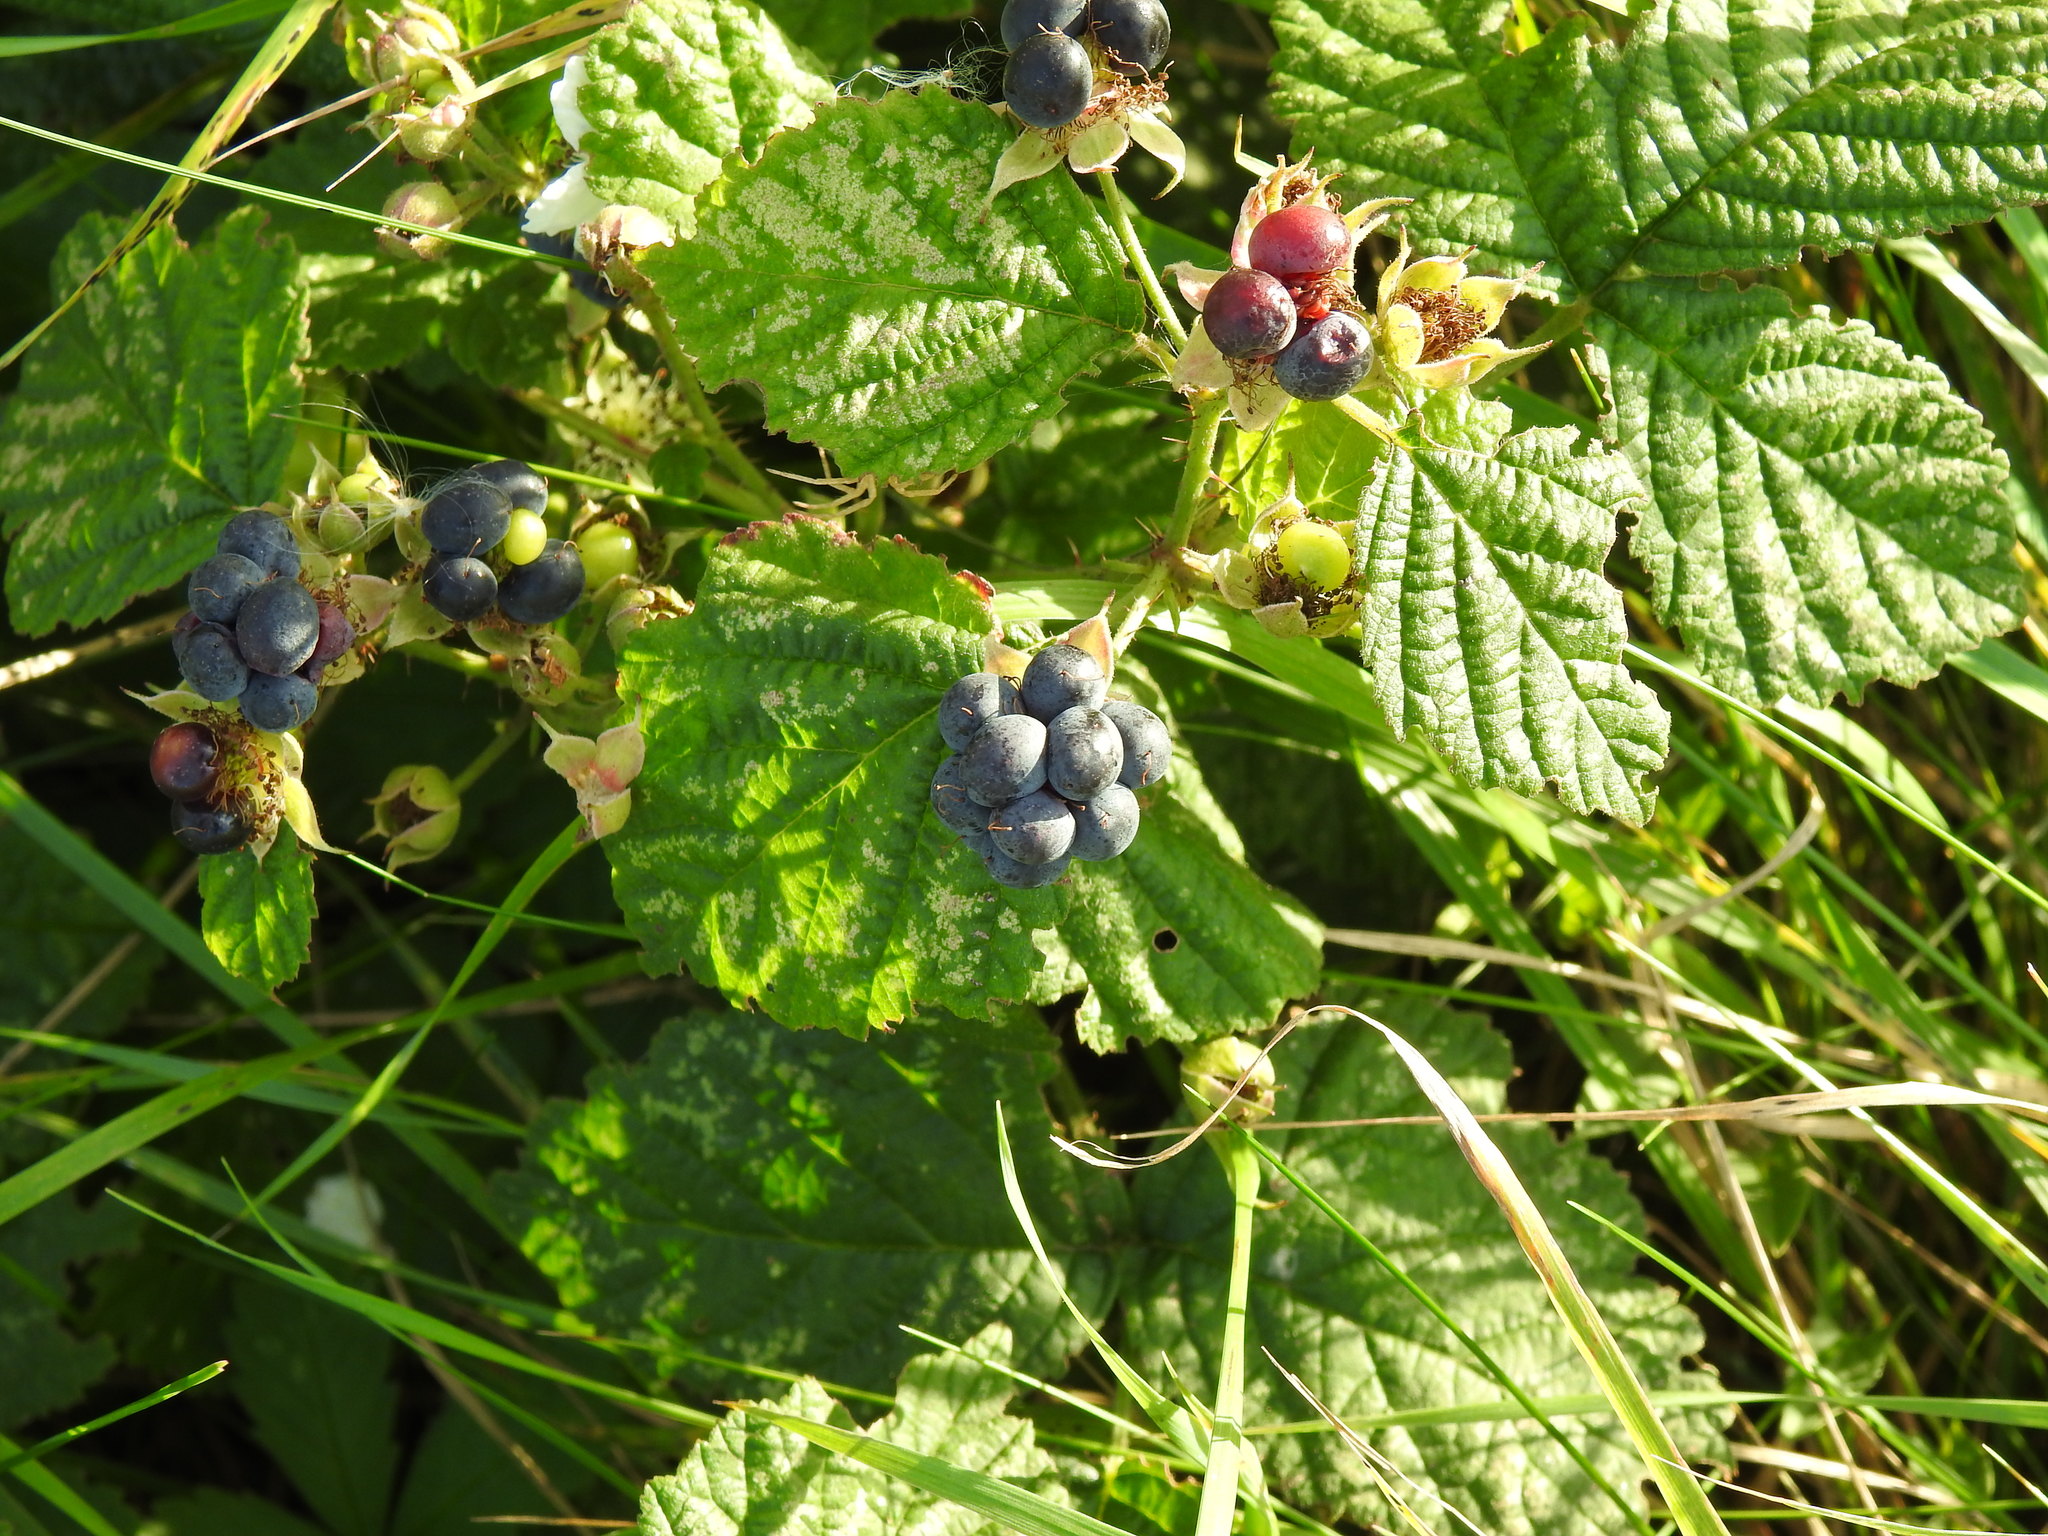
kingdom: Plantae
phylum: Tracheophyta
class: Magnoliopsida
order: Rosales
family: Rosaceae
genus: Rubus
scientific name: Rubus caesius
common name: Dewberry
